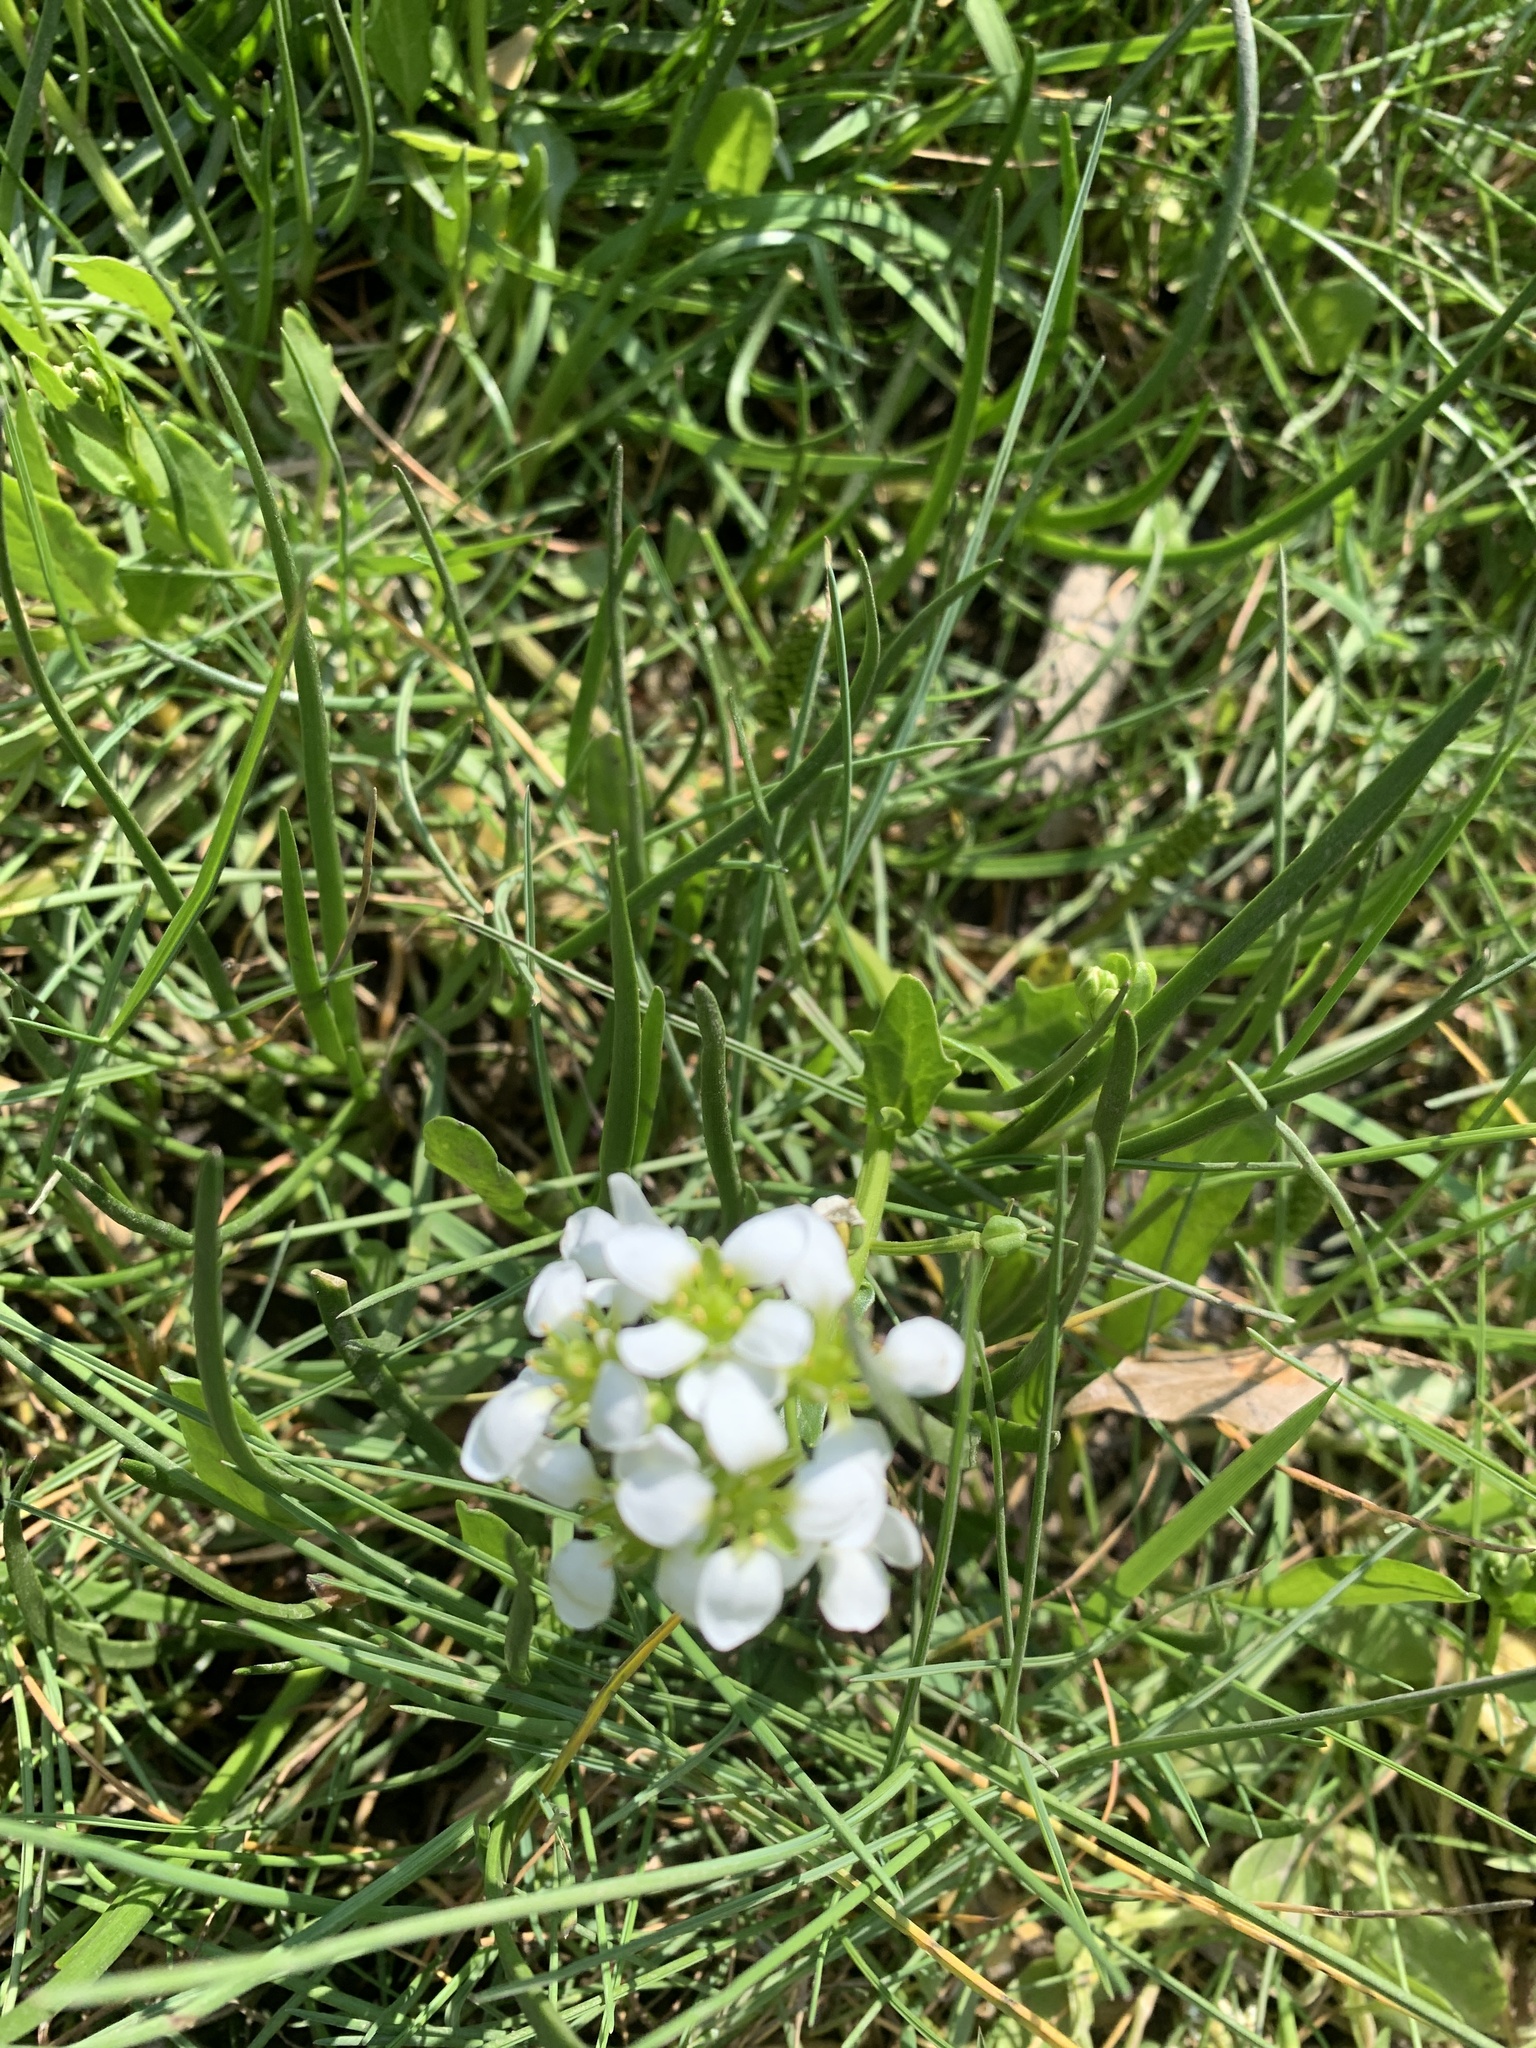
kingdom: Plantae
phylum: Tracheophyta
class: Magnoliopsida
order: Brassicales
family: Brassicaceae
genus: Cochlearia
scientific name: Cochlearia officinalis
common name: Scurvy-grass
